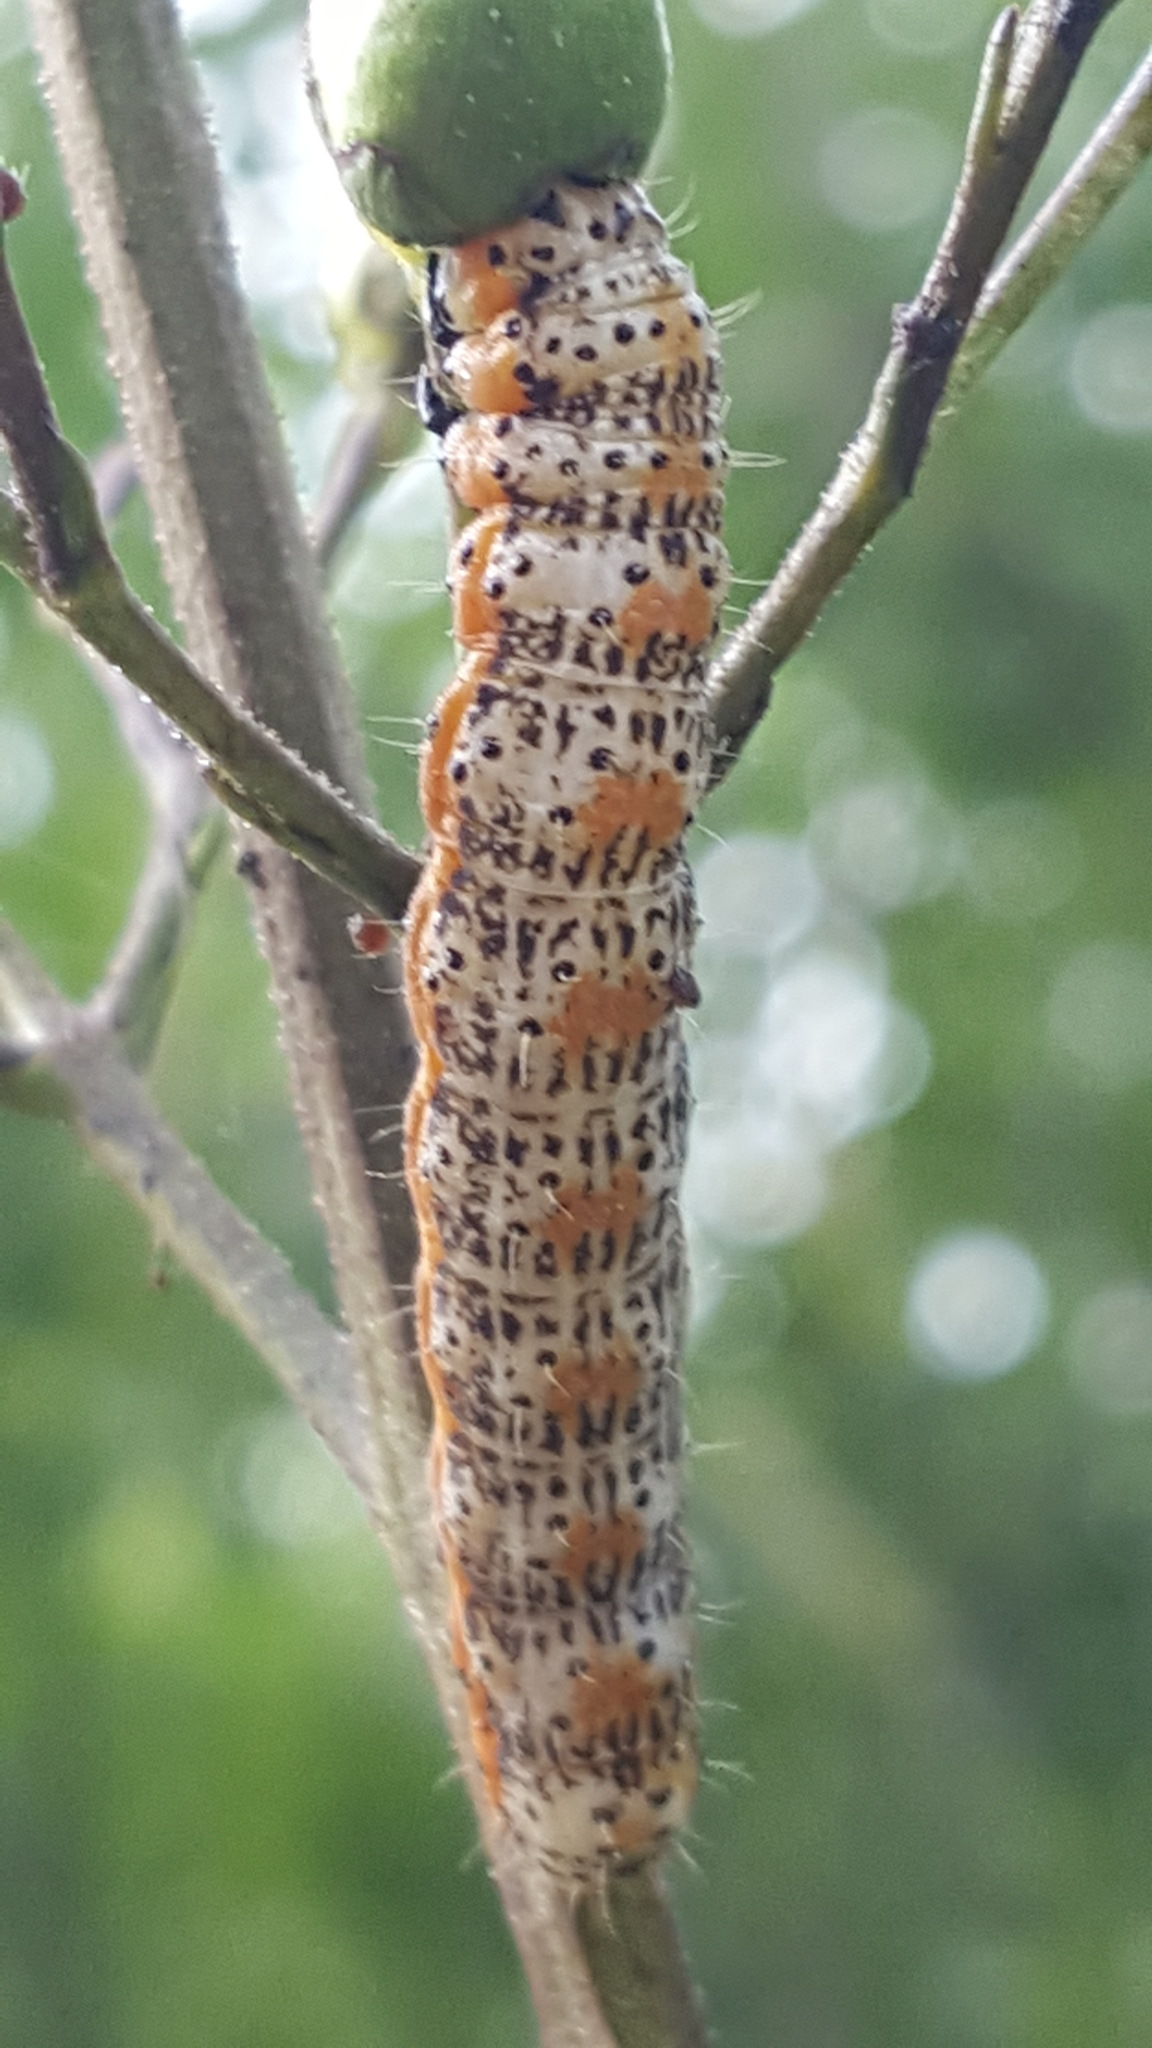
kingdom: Animalia
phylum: Arthropoda
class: Insecta
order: Lepidoptera
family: Noctuidae
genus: Pyrrhia
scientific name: Pyrrhia exprimens
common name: Purple-lined sallow
